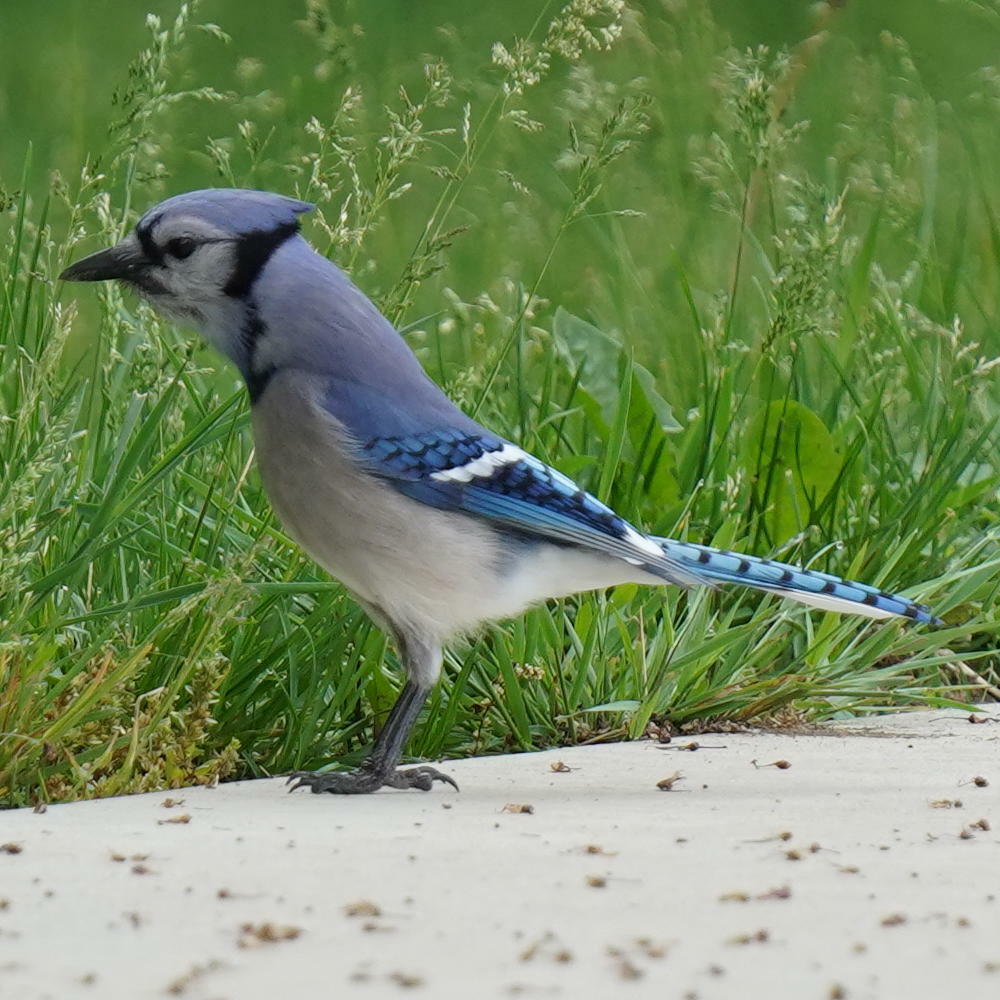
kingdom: Animalia
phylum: Chordata
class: Aves
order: Passeriformes
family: Corvidae
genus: Cyanocitta
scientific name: Cyanocitta cristata
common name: Blue jay
